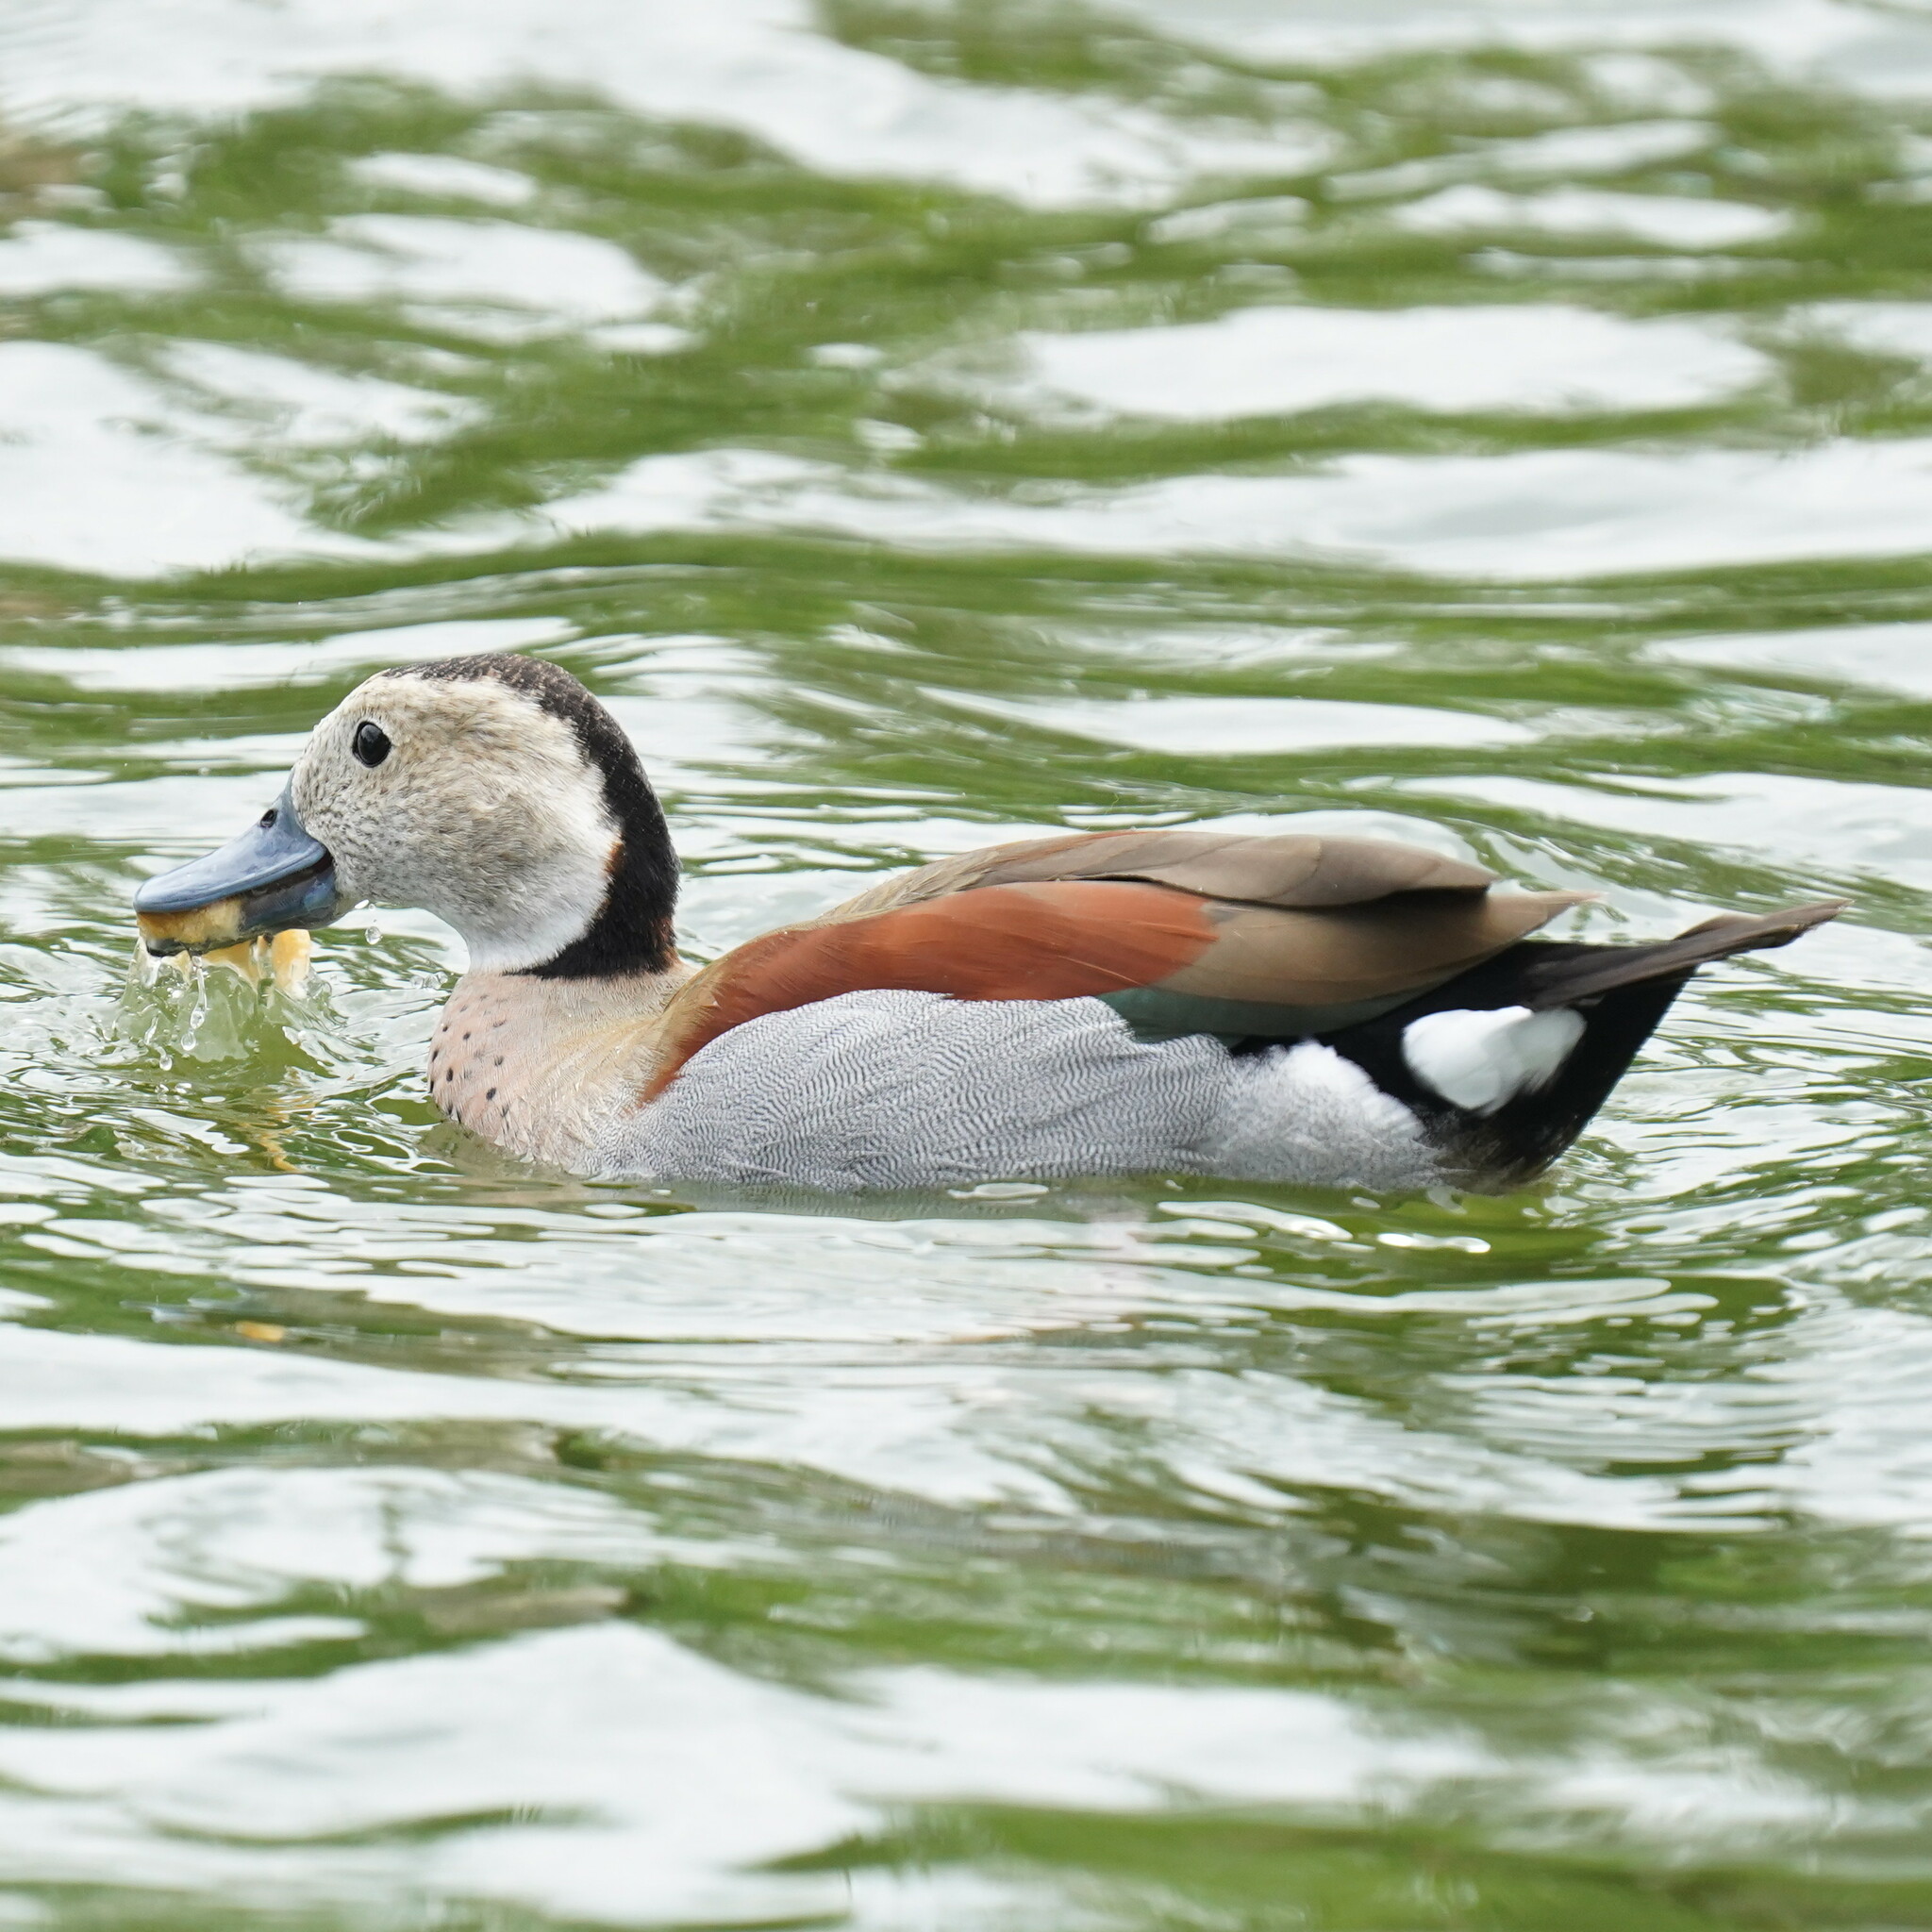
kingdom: Animalia
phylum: Chordata
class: Aves
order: Anseriformes
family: Anatidae
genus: Callonetta
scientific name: Callonetta leucophrys
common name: Ringed teal
